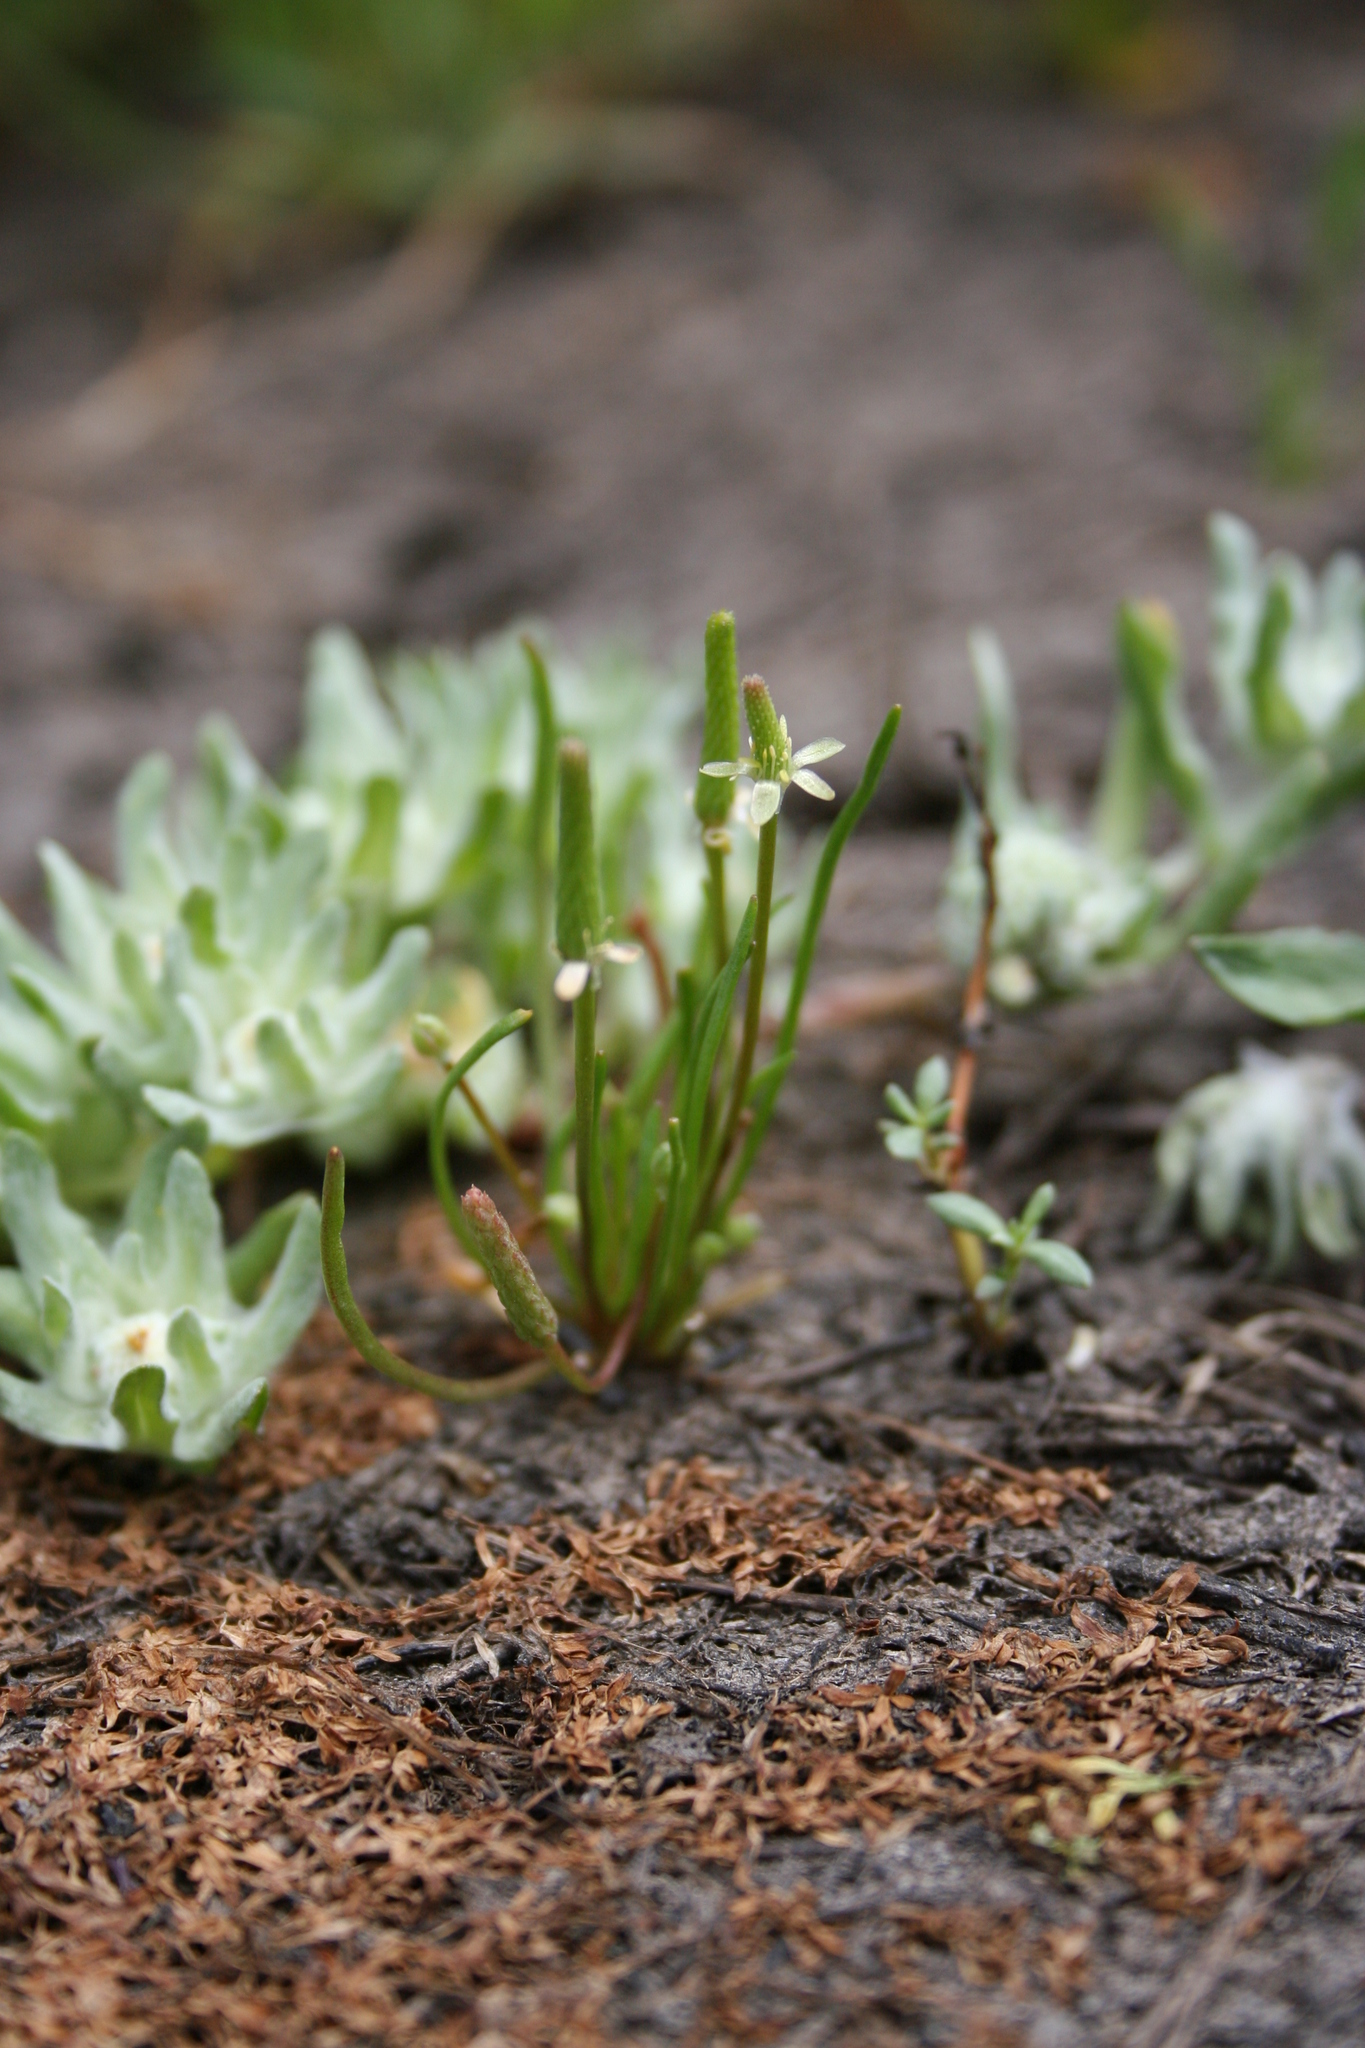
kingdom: Plantae
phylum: Tracheophyta
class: Magnoliopsida
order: Ranunculales
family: Ranunculaceae
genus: Myosurus
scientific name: Myosurus minimus
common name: Mousetail
